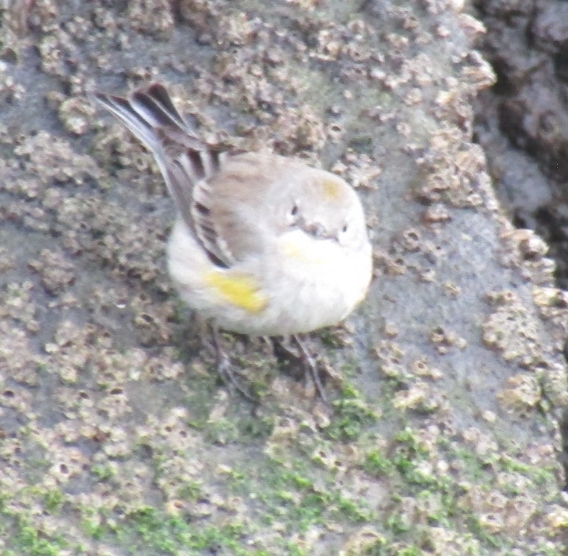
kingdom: Animalia
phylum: Chordata
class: Aves
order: Passeriformes
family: Parulidae
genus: Setophaga
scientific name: Setophaga coronata
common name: Myrtle warbler
